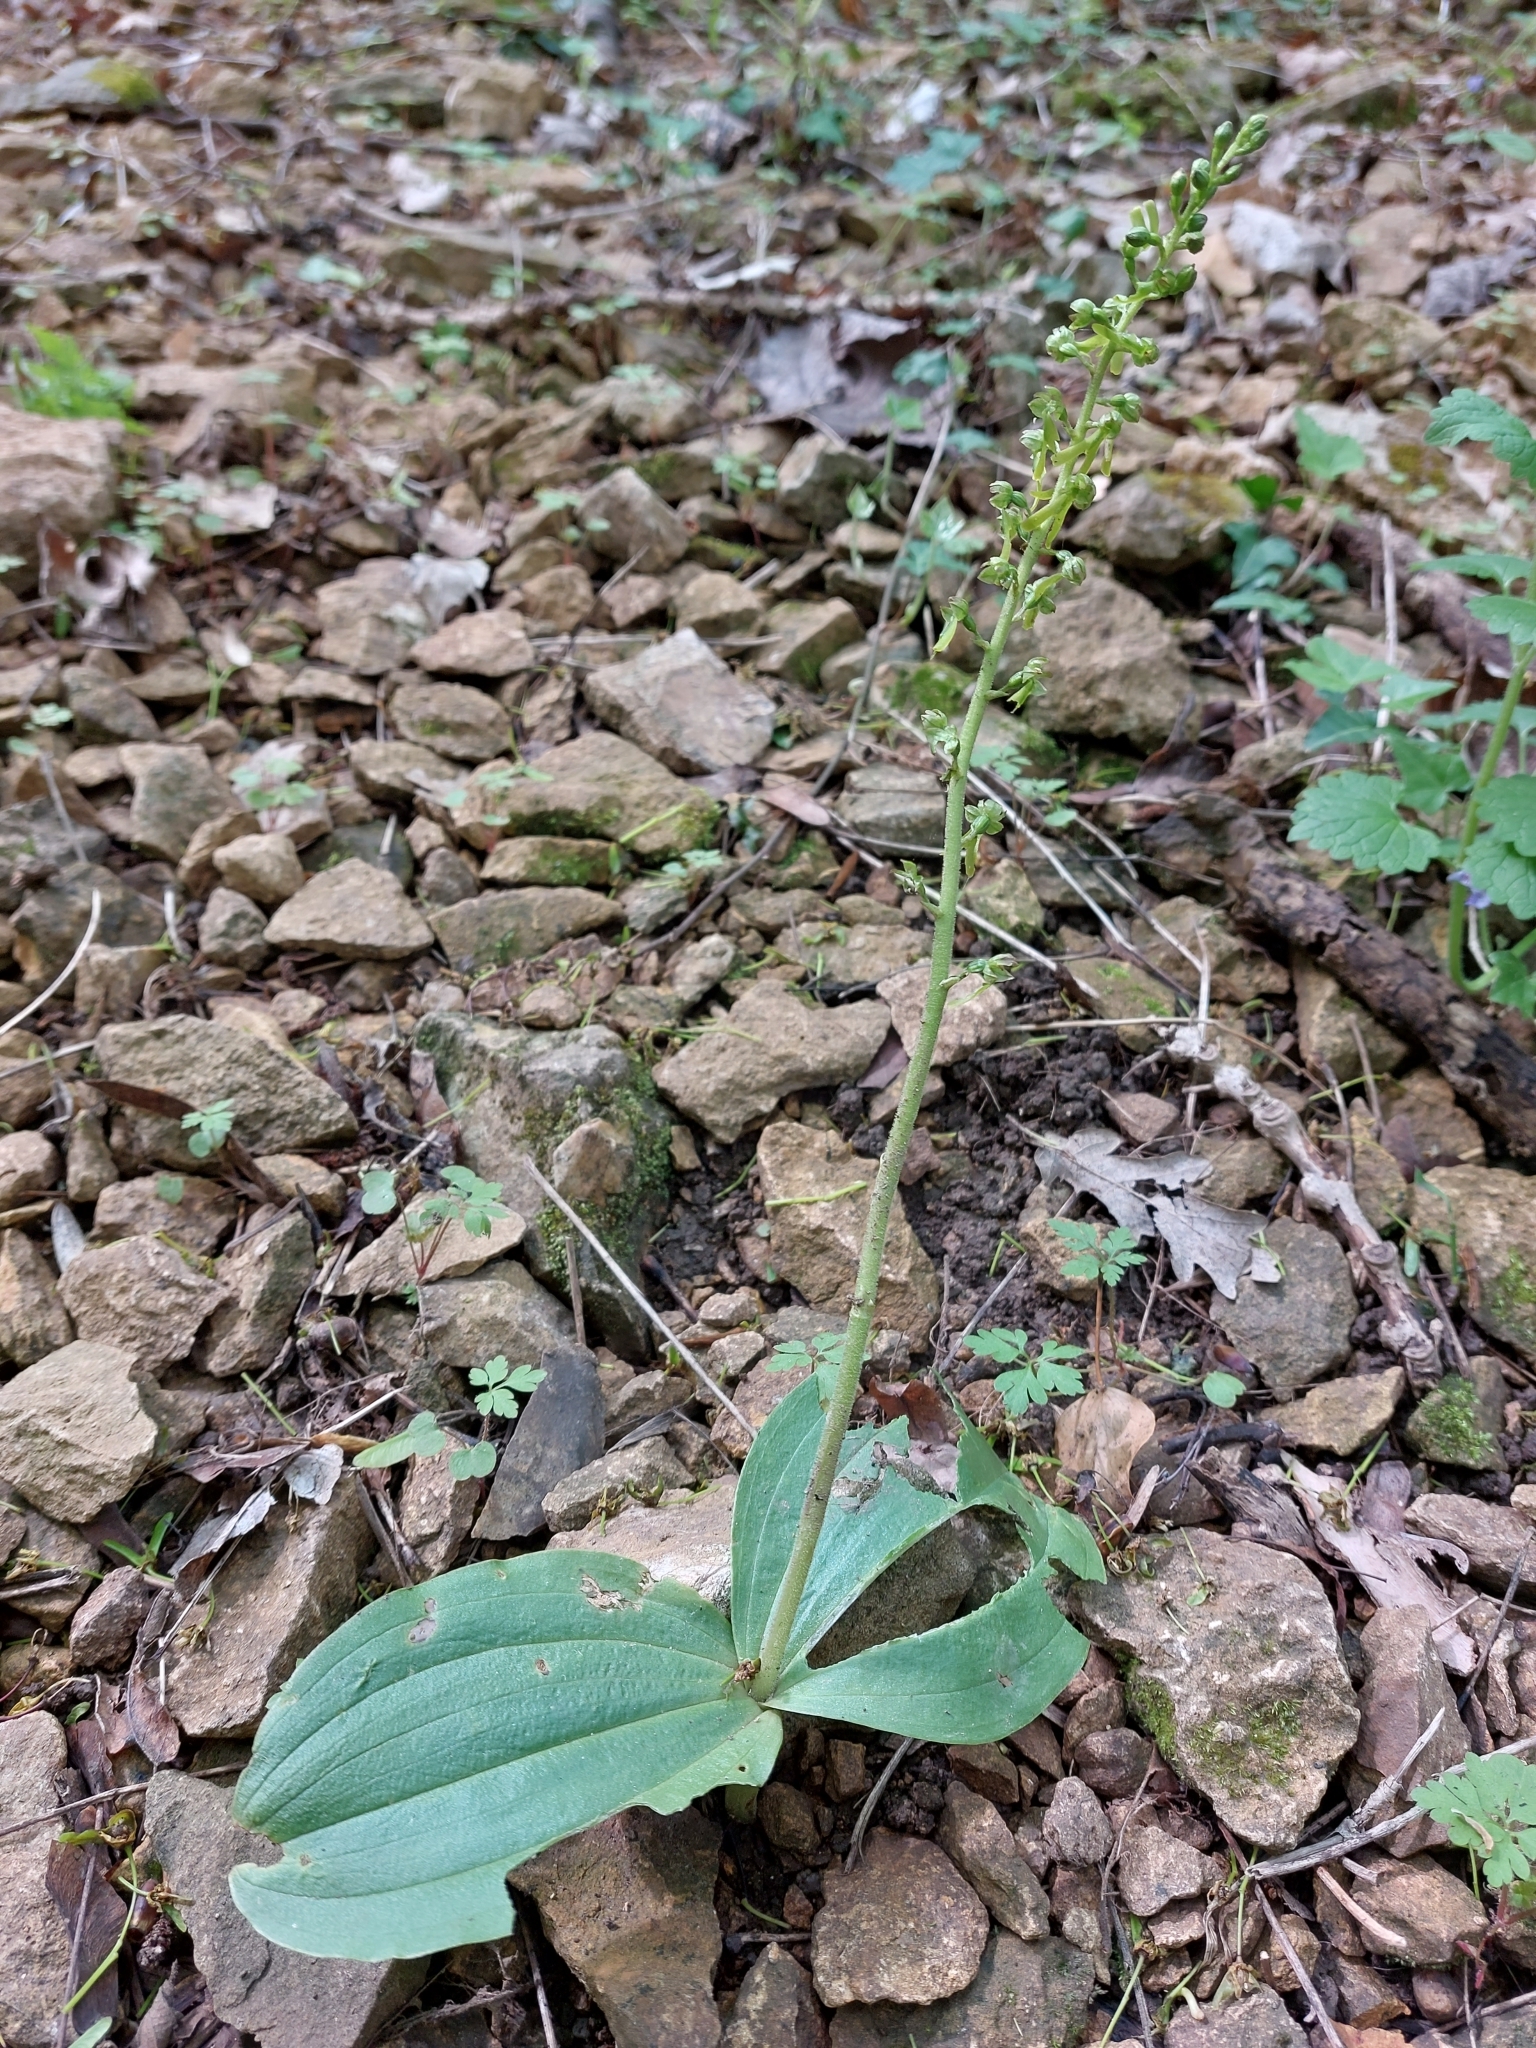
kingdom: Plantae
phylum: Tracheophyta
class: Liliopsida
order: Asparagales
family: Orchidaceae
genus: Neottia
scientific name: Neottia ovata
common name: Common twayblade
